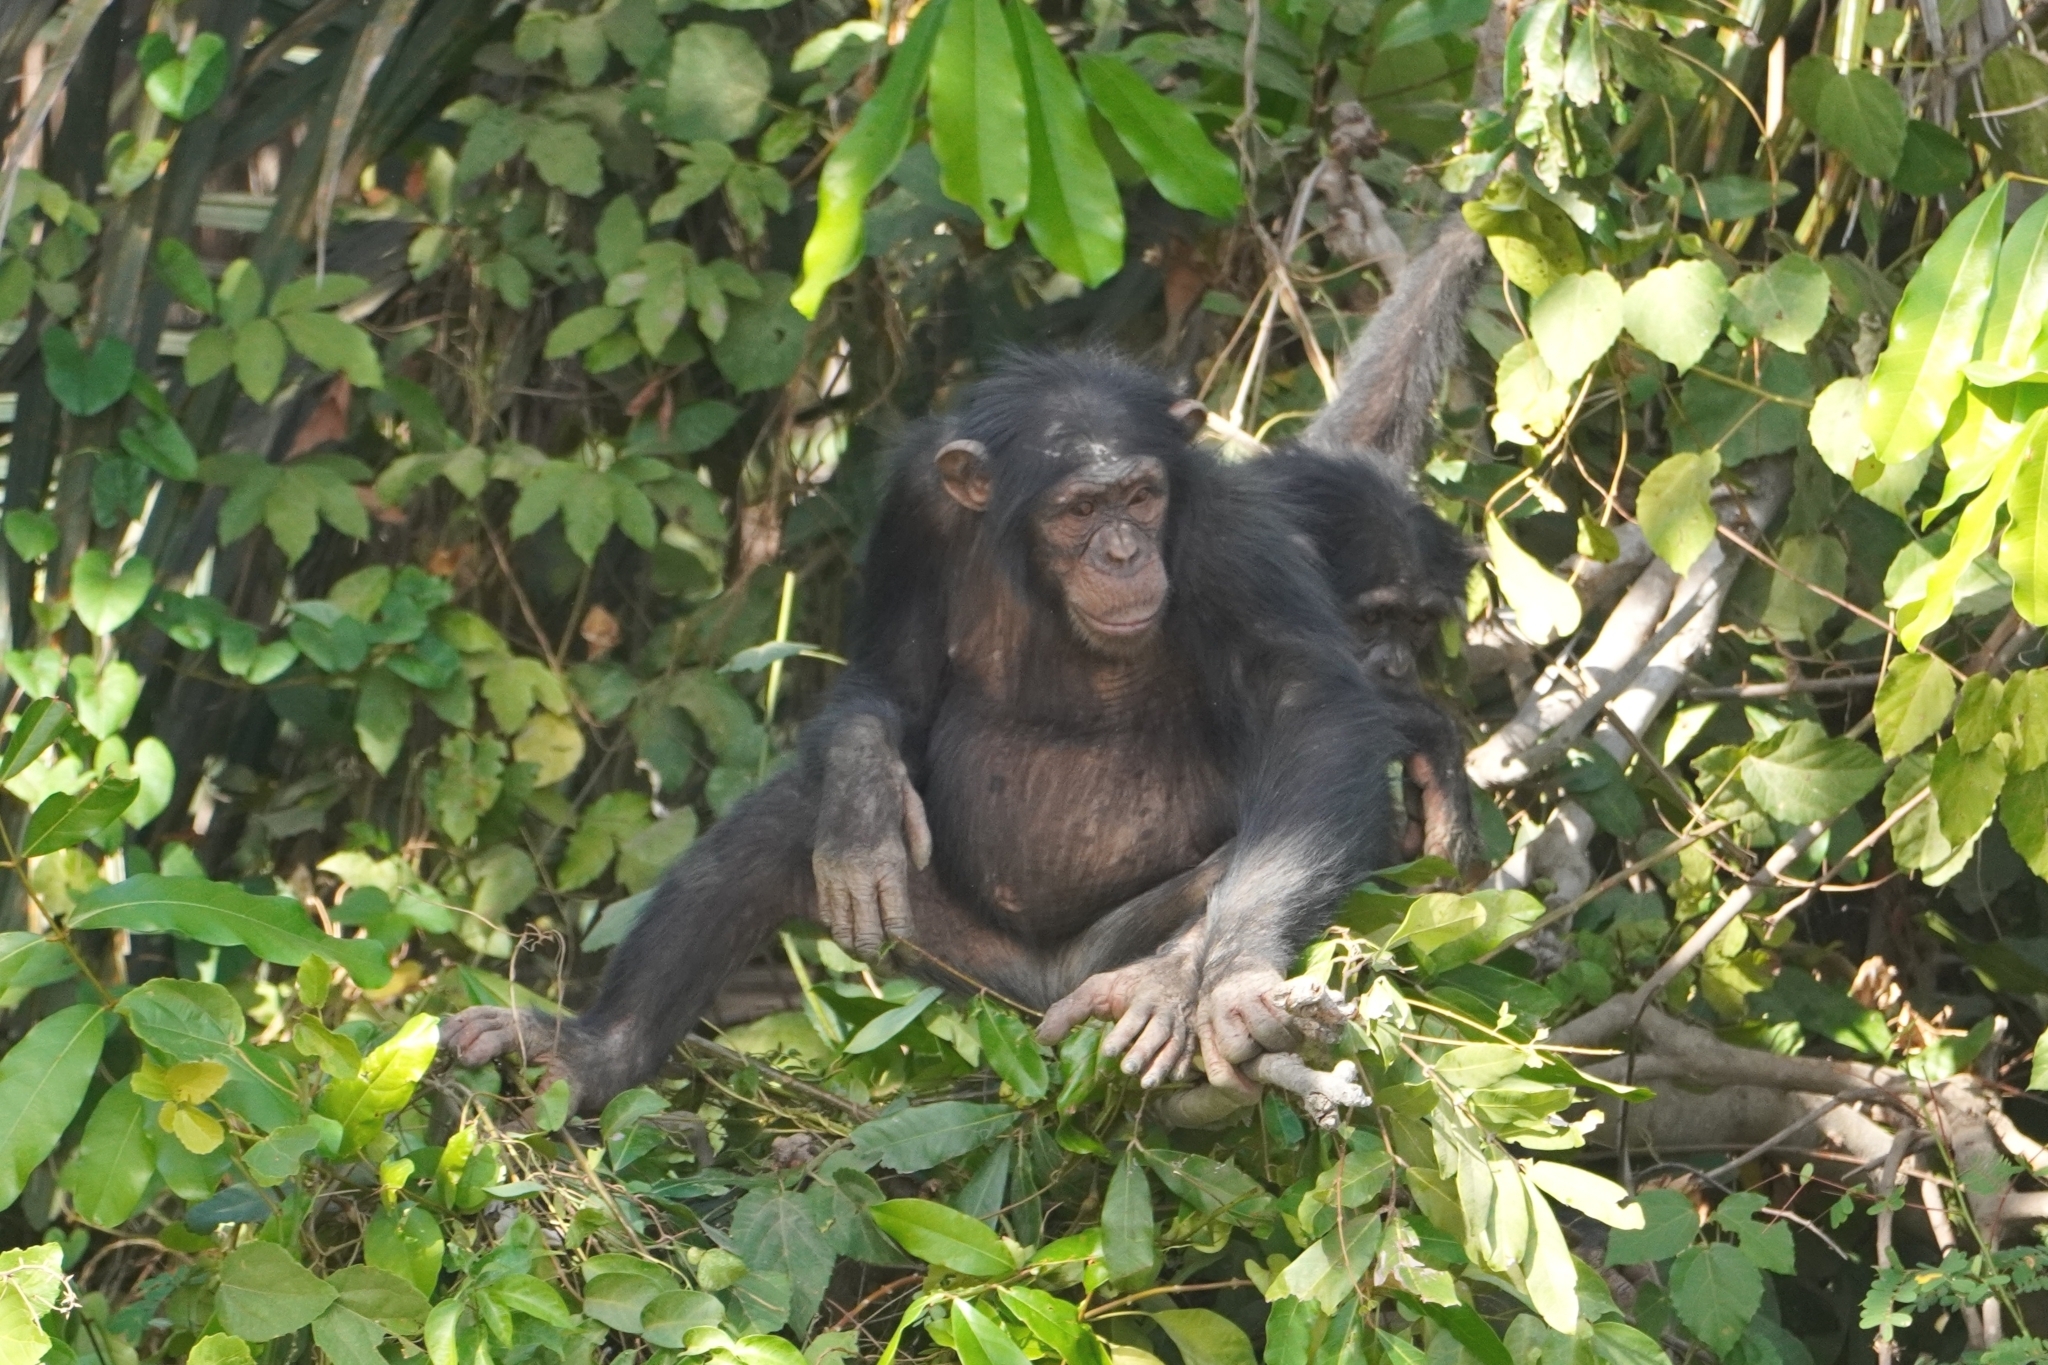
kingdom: Animalia
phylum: Chordata
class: Mammalia
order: Primates
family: Hominidae
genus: Pan
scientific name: Pan troglodytes
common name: Chimpanzee
